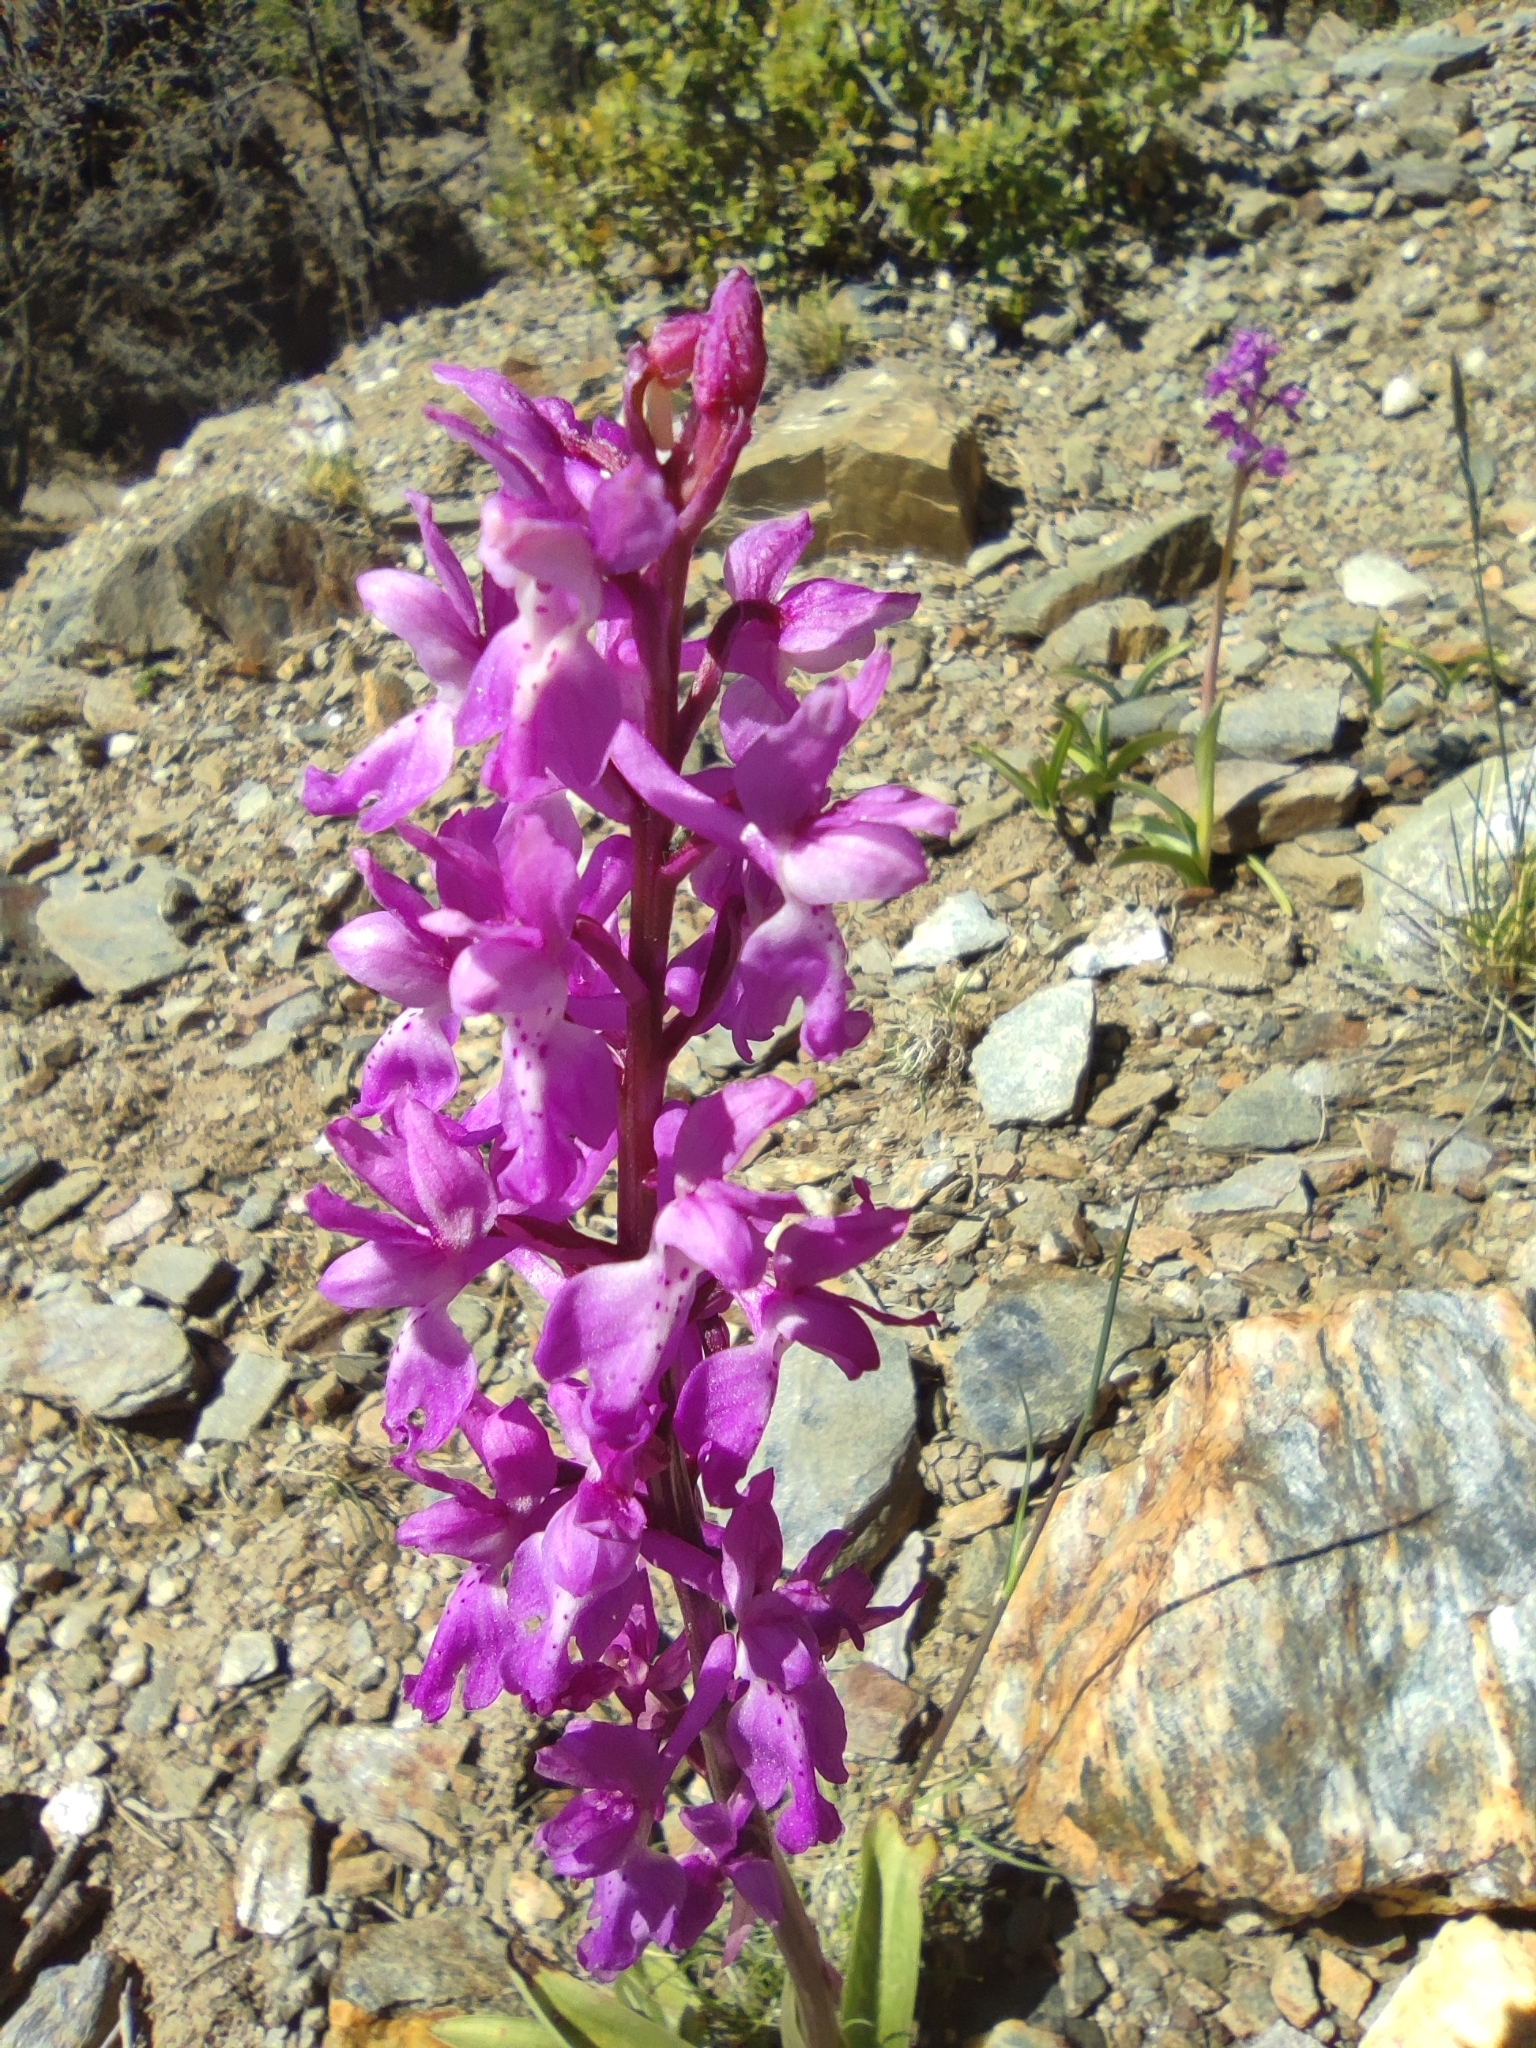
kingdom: Plantae
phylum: Tracheophyta
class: Liliopsida
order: Asparagales
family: Orchidaceae
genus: Orchis
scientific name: Orchis mascula
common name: Early-purple orchid
